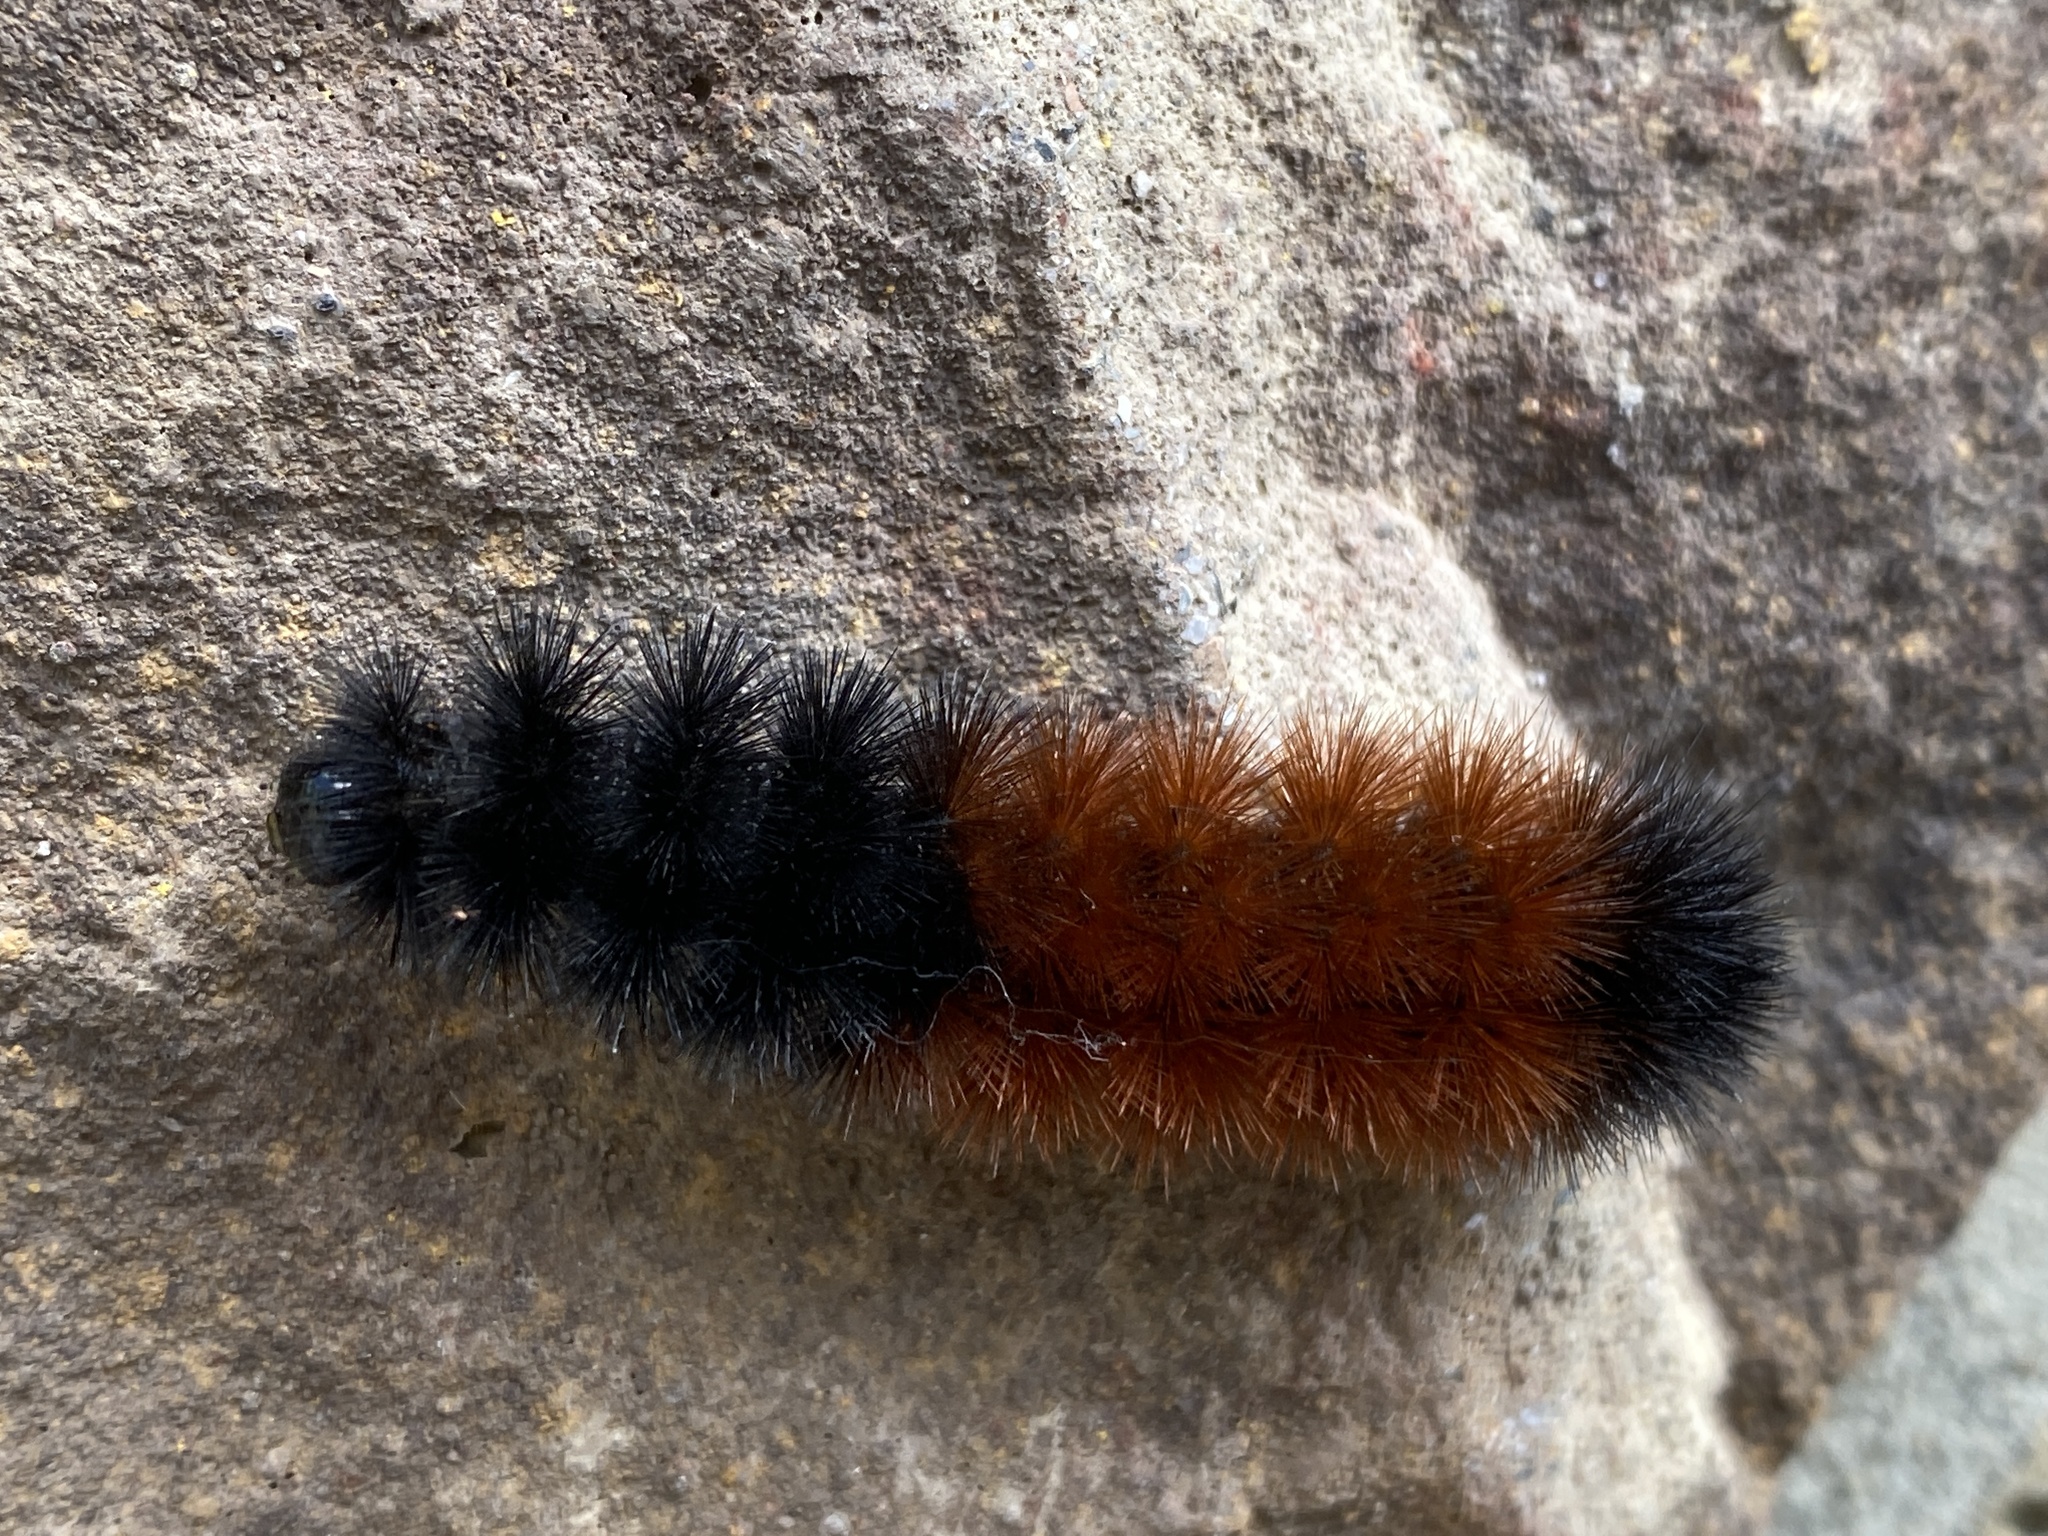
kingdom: Animalia
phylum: Arthropoda
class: Insecta
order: Lepidoptera
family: Erebidae
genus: Pyrrharctia
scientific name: Pyrrharctia isabella
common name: Isabella tiger moth
